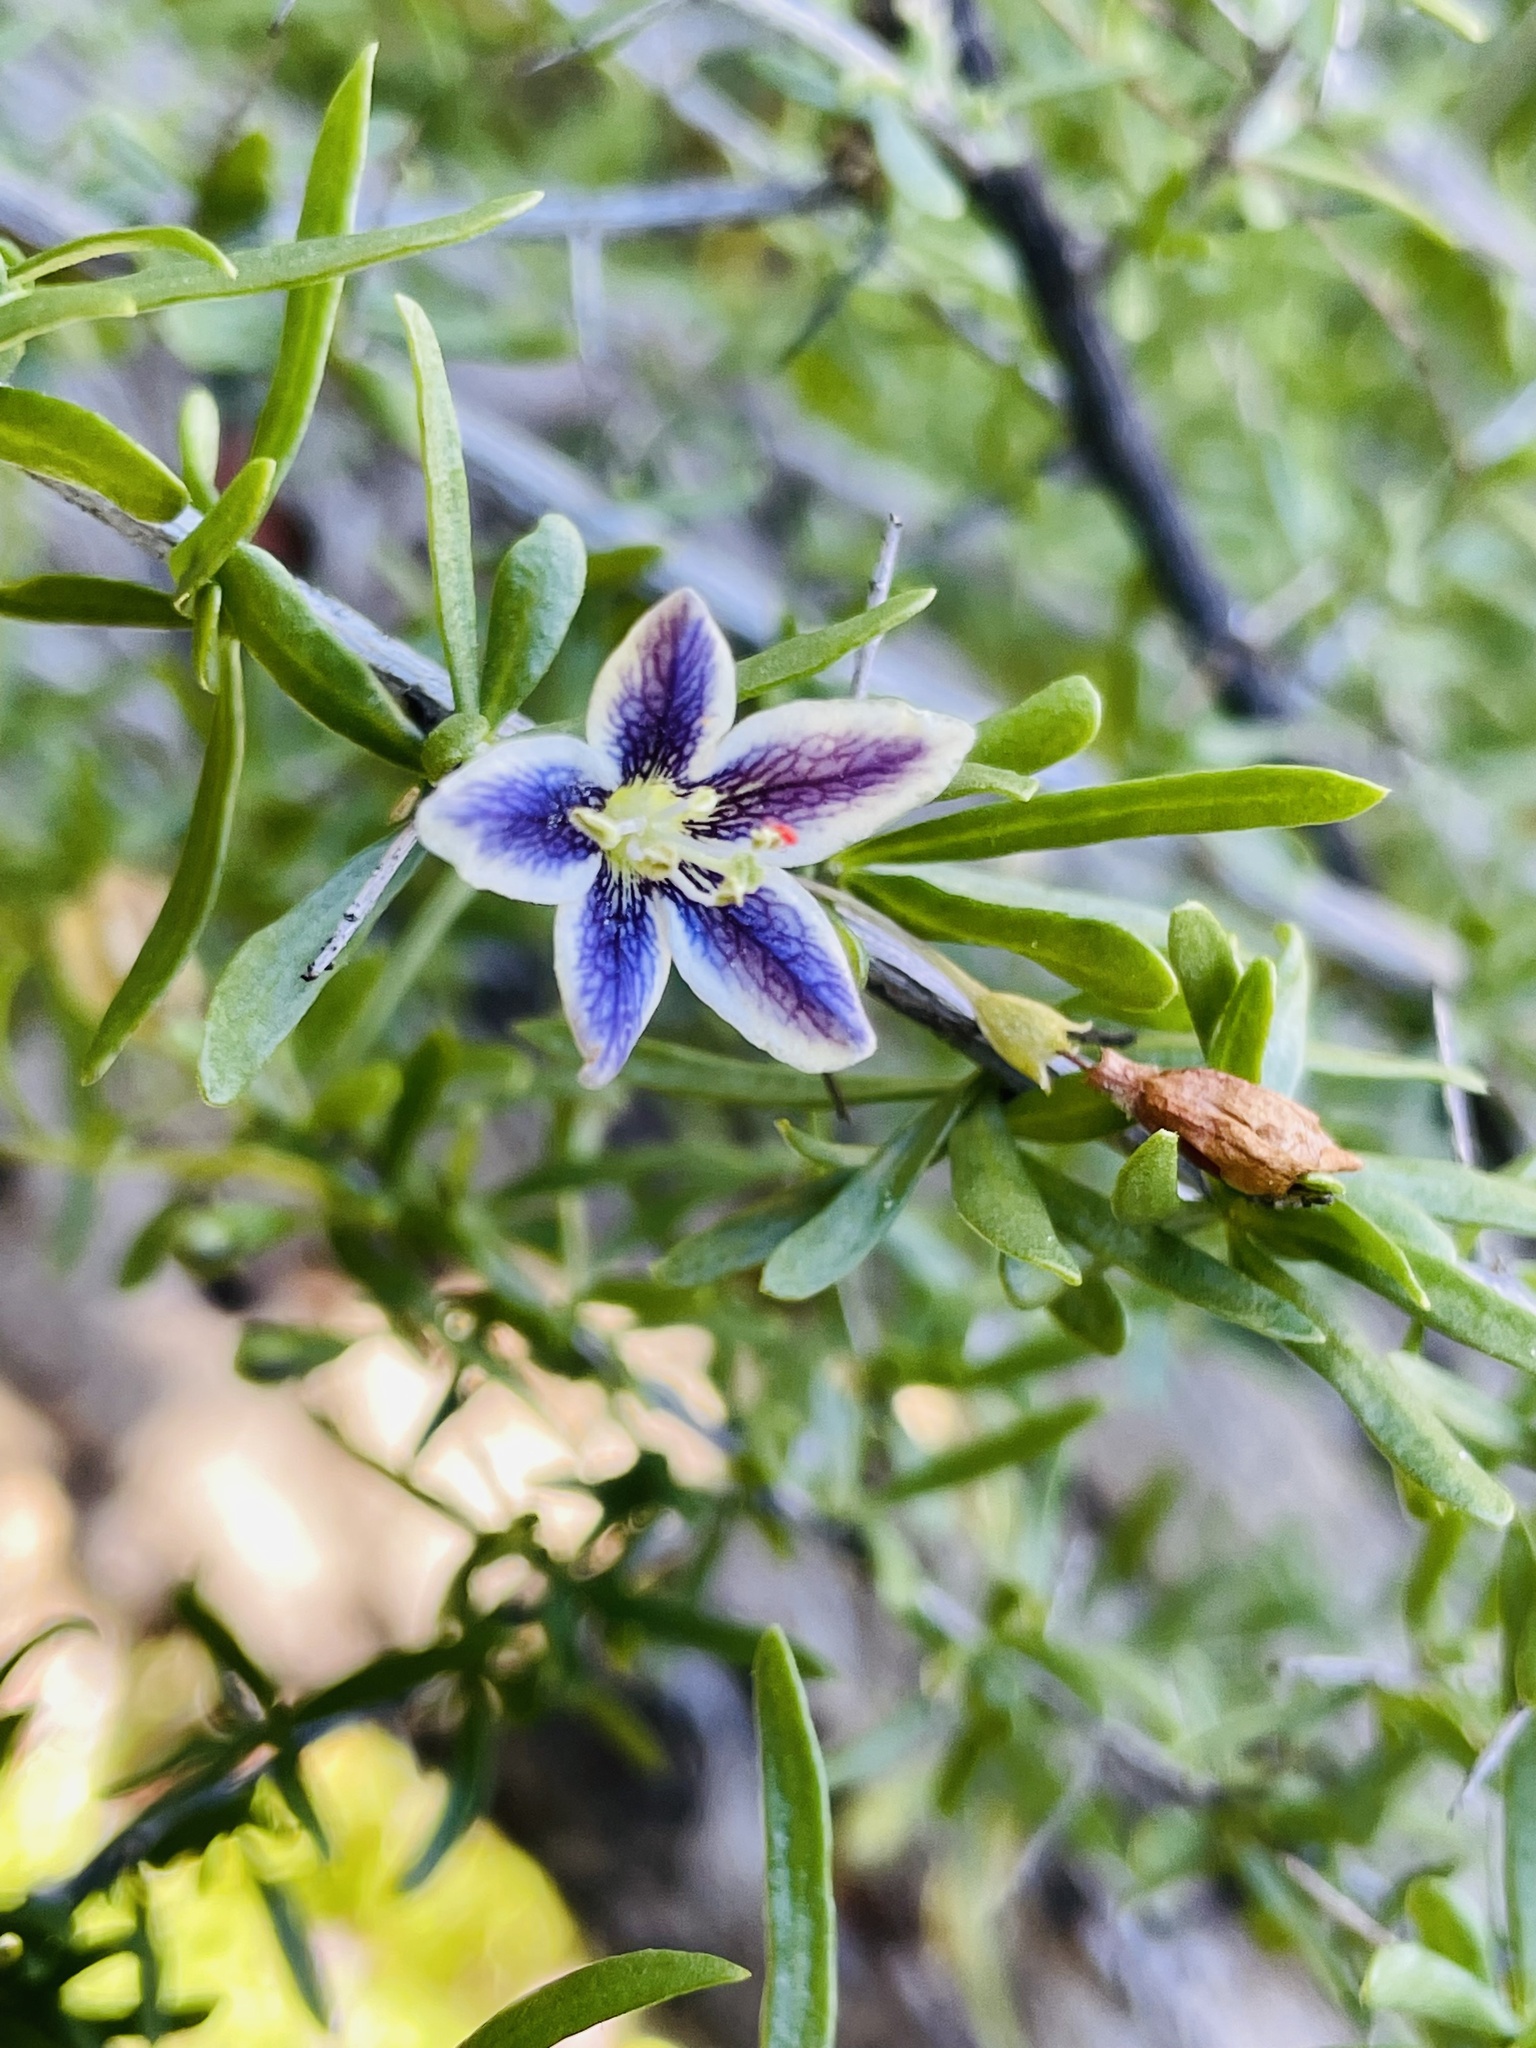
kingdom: Plantae
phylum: Tracheophyta
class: Magnoliopsida
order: Solanales
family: Solanaceae
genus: Lycium
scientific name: Lycium chilense
